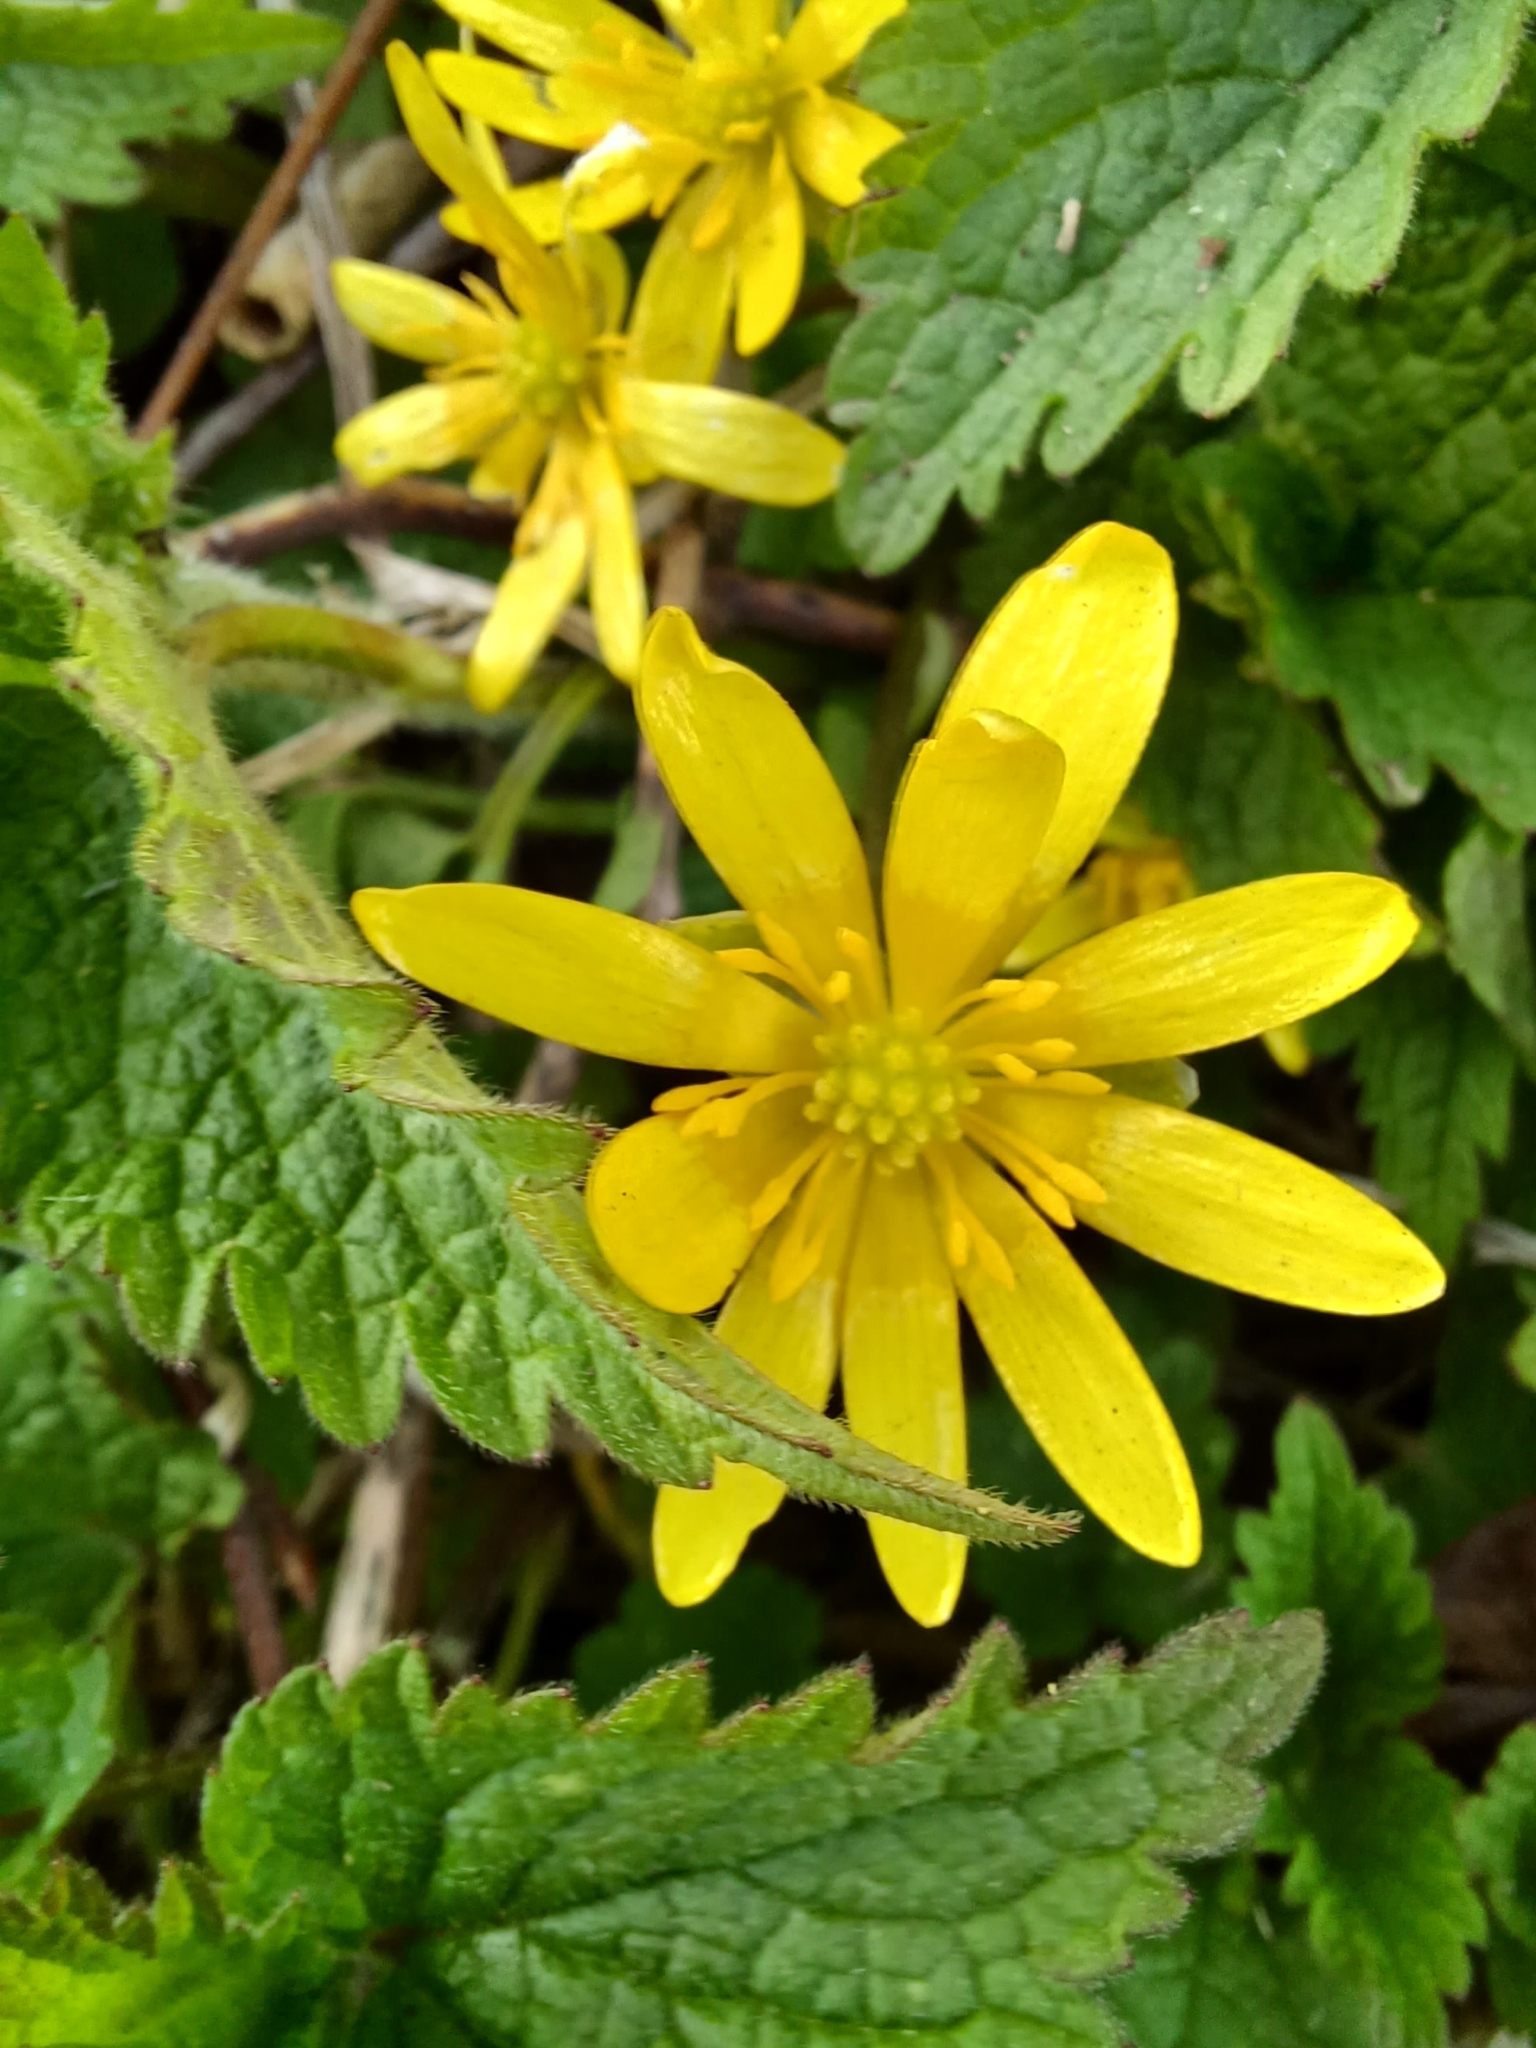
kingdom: Plantae
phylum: Tracheophyta
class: Magnoliopsida
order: Ranunculales
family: Ranunculaceae
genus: Ficaria
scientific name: Ficaria verna
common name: Lesser celandine
